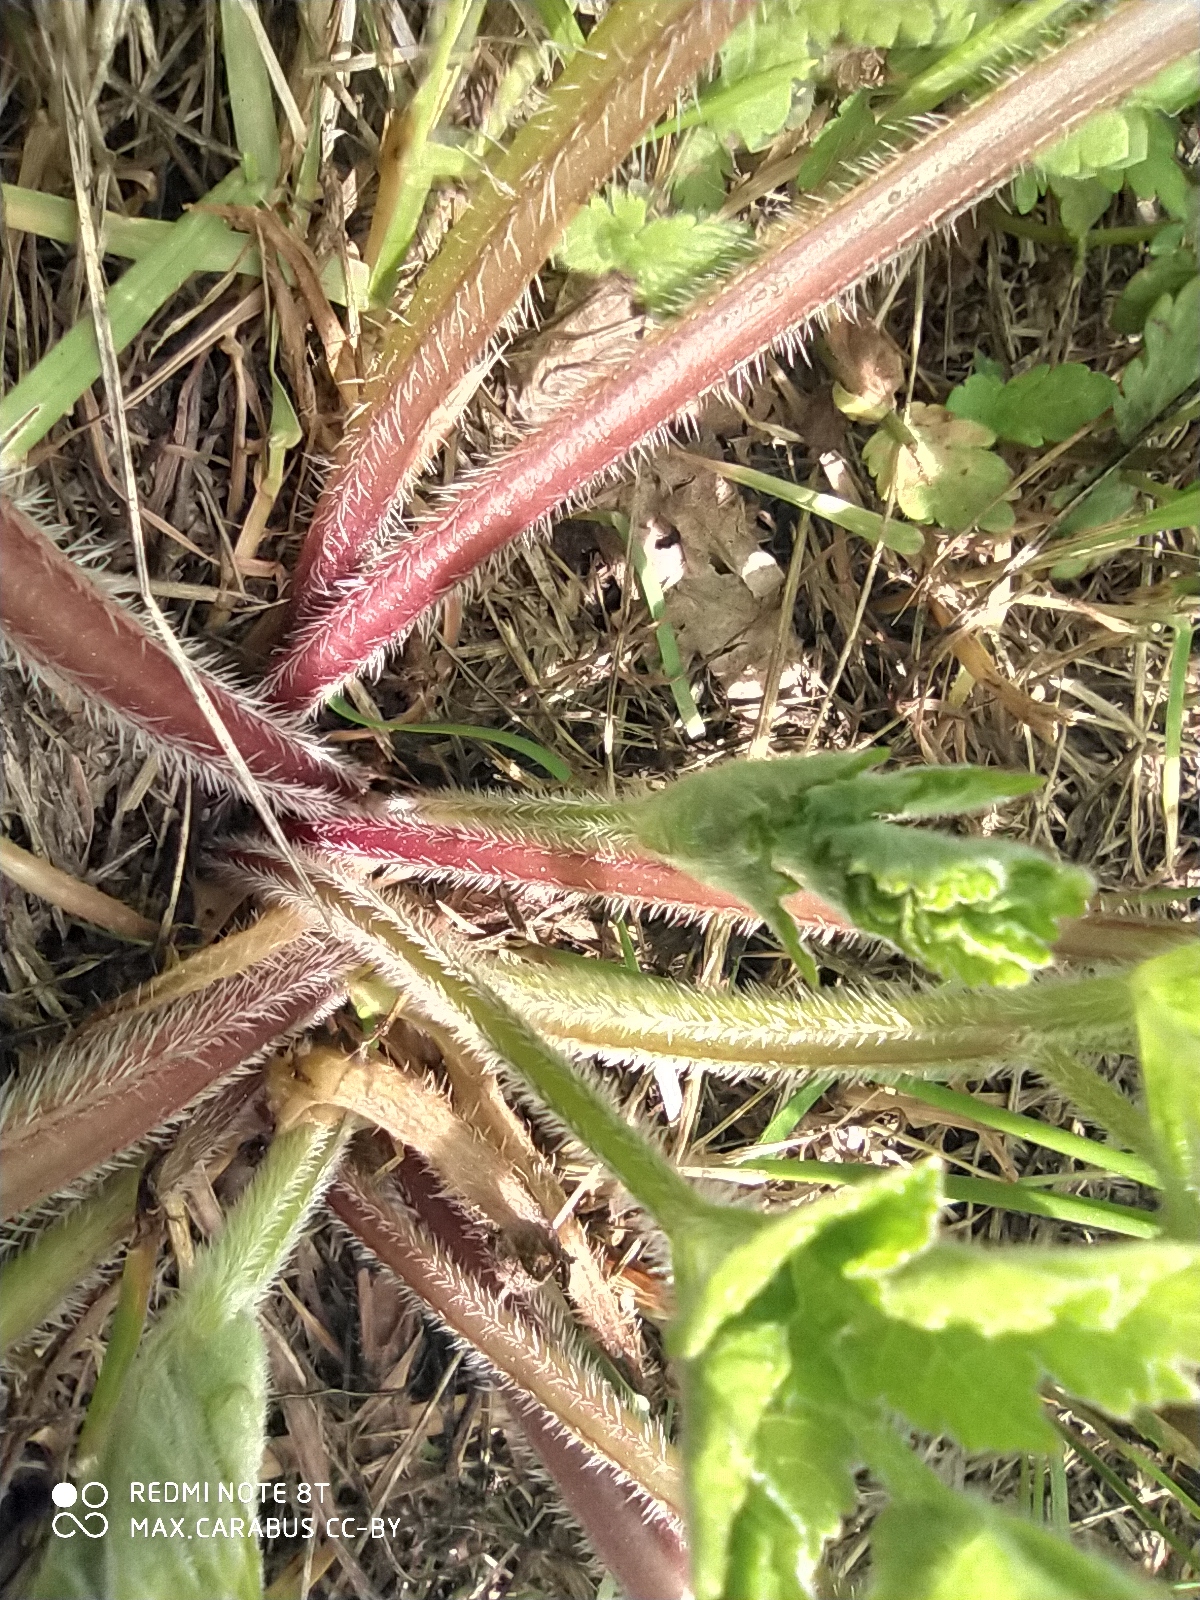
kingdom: Plantae
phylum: Tracheophyta
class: Magnoliopsida
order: Apiales
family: Apiaceae
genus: Heracleum
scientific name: Heracleum sphondylium
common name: Hogweed
